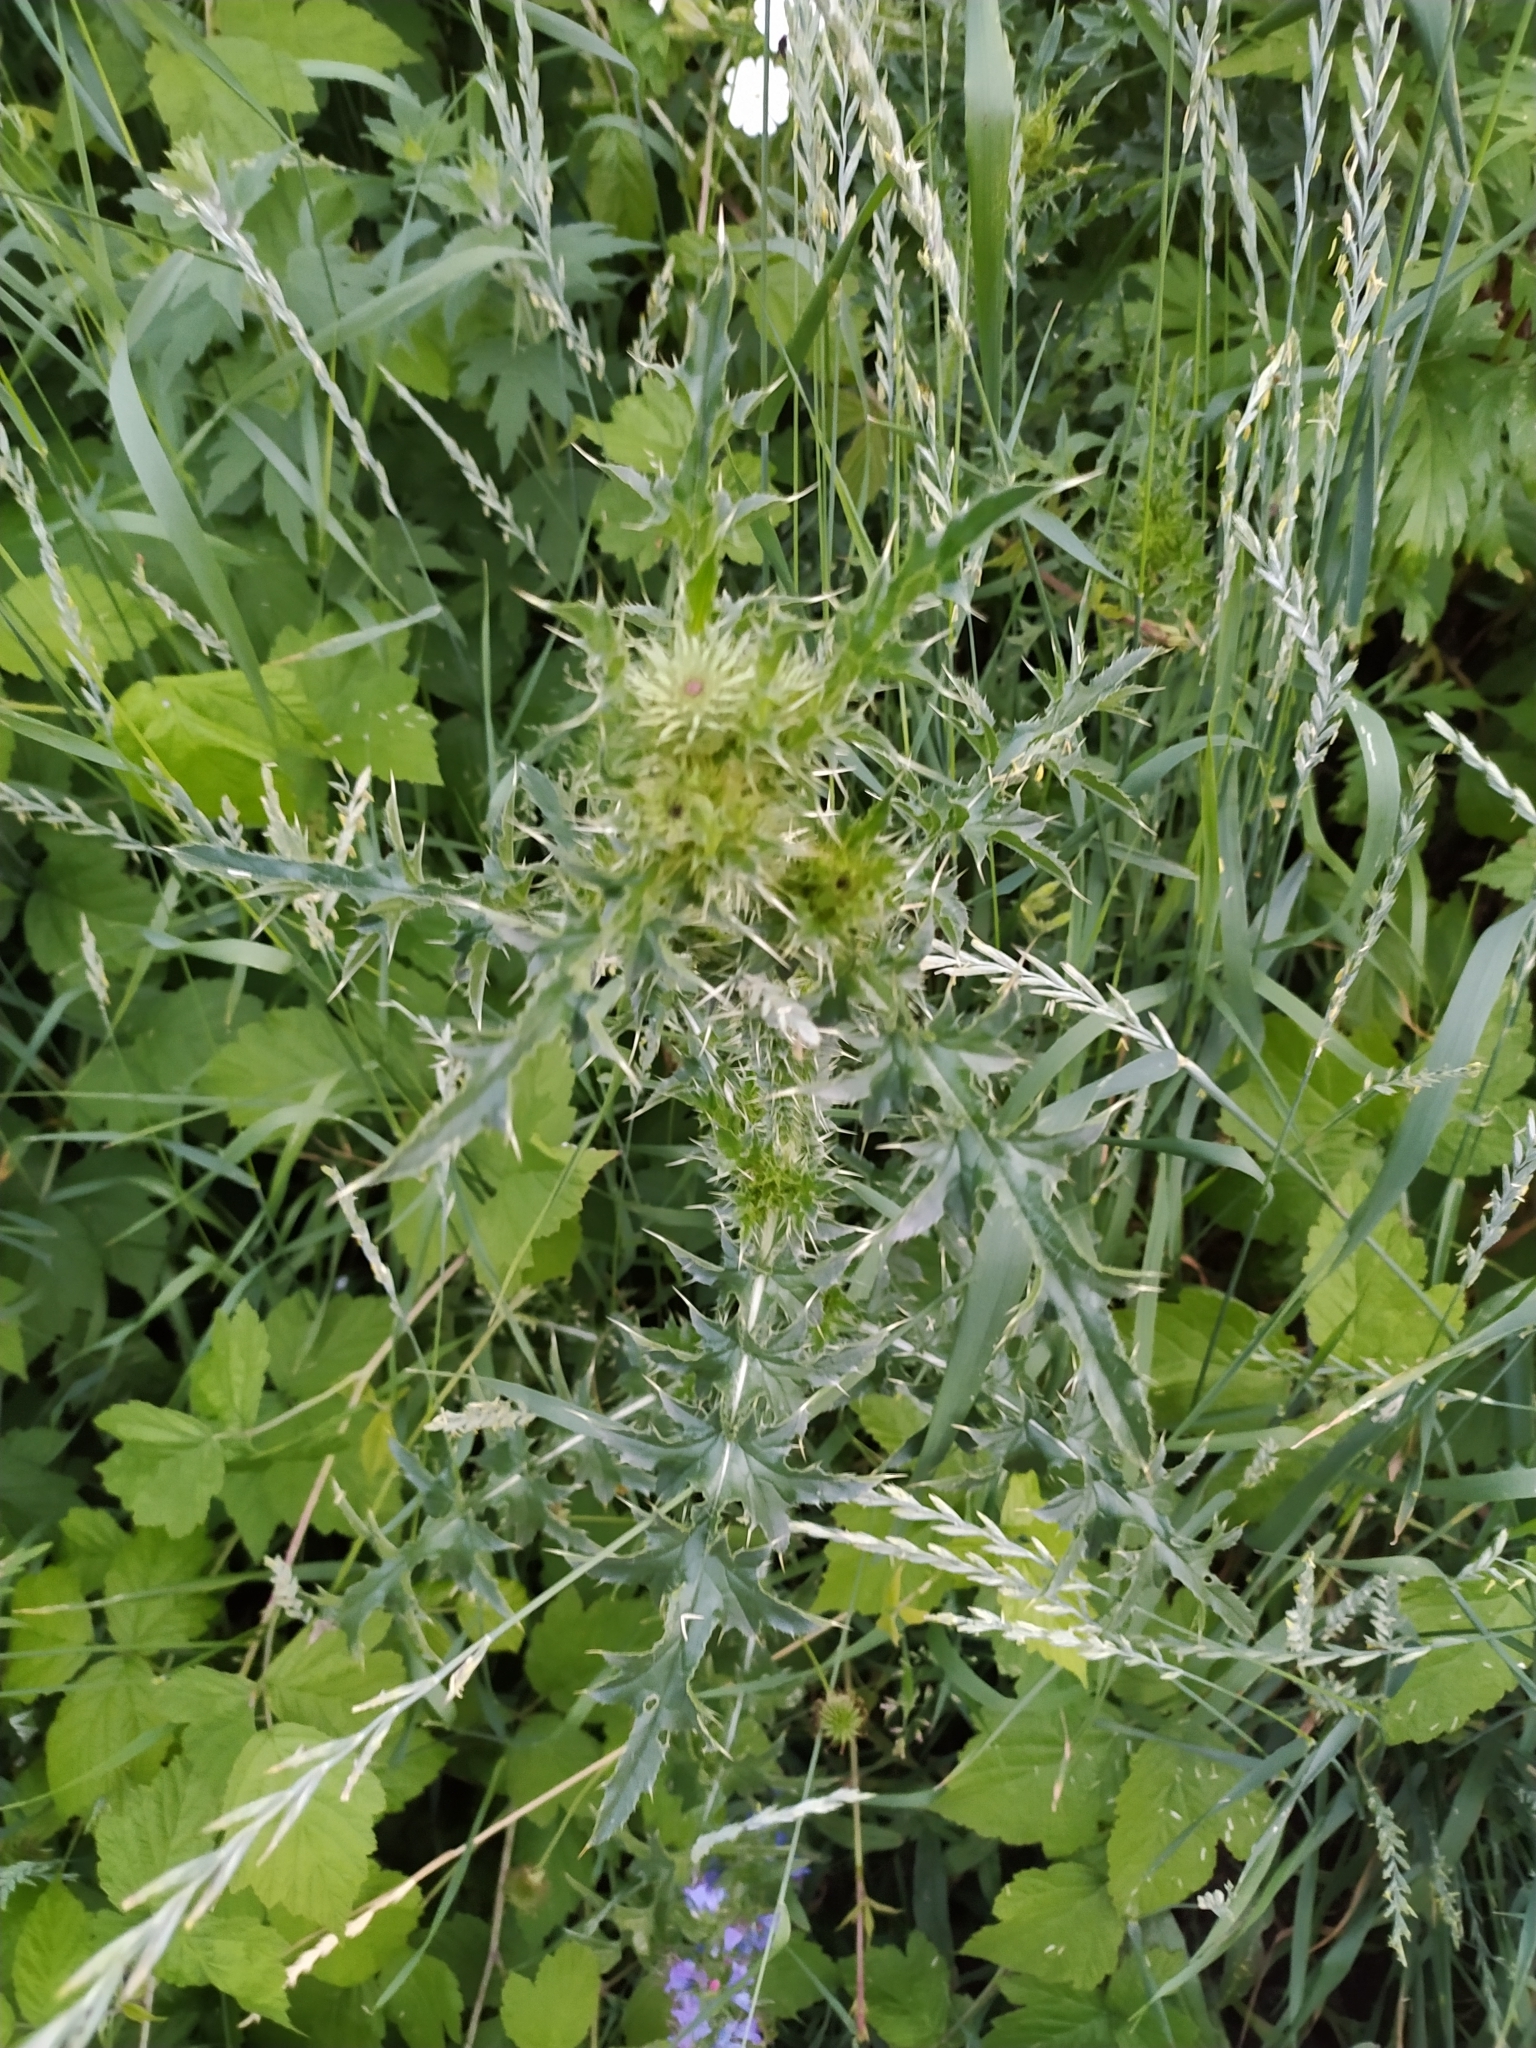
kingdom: Plantae
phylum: Tracheophyta
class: Magnoliopsida
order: Asterales
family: Asteraceae
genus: Carduus
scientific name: Carduus acanthoides
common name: Plumeless thistle
